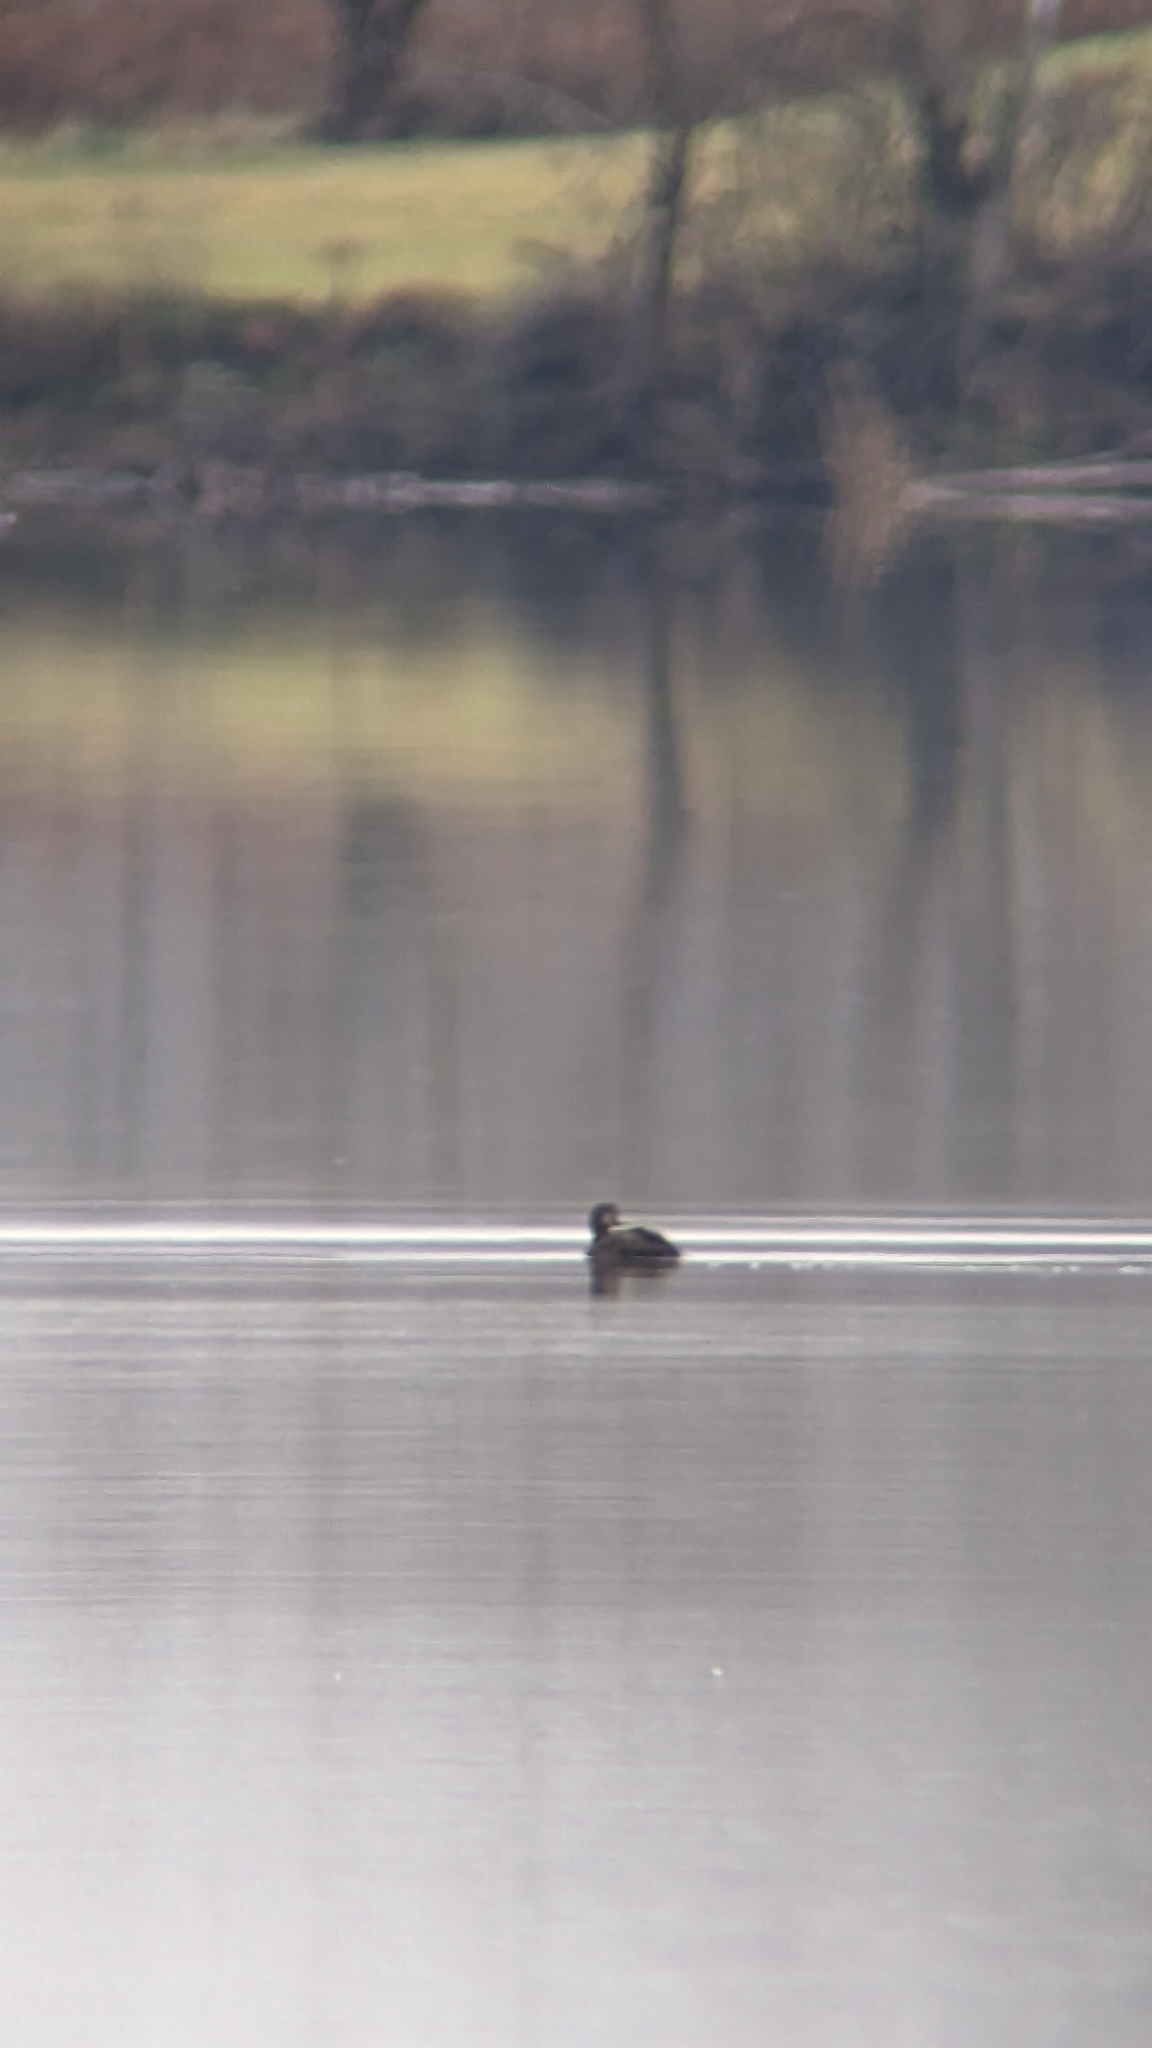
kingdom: Animalia
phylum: Chordata
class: Aves
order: Anseriformes
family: Anatidae
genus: Melanitta
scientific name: Melanitta americana
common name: Black scoter
